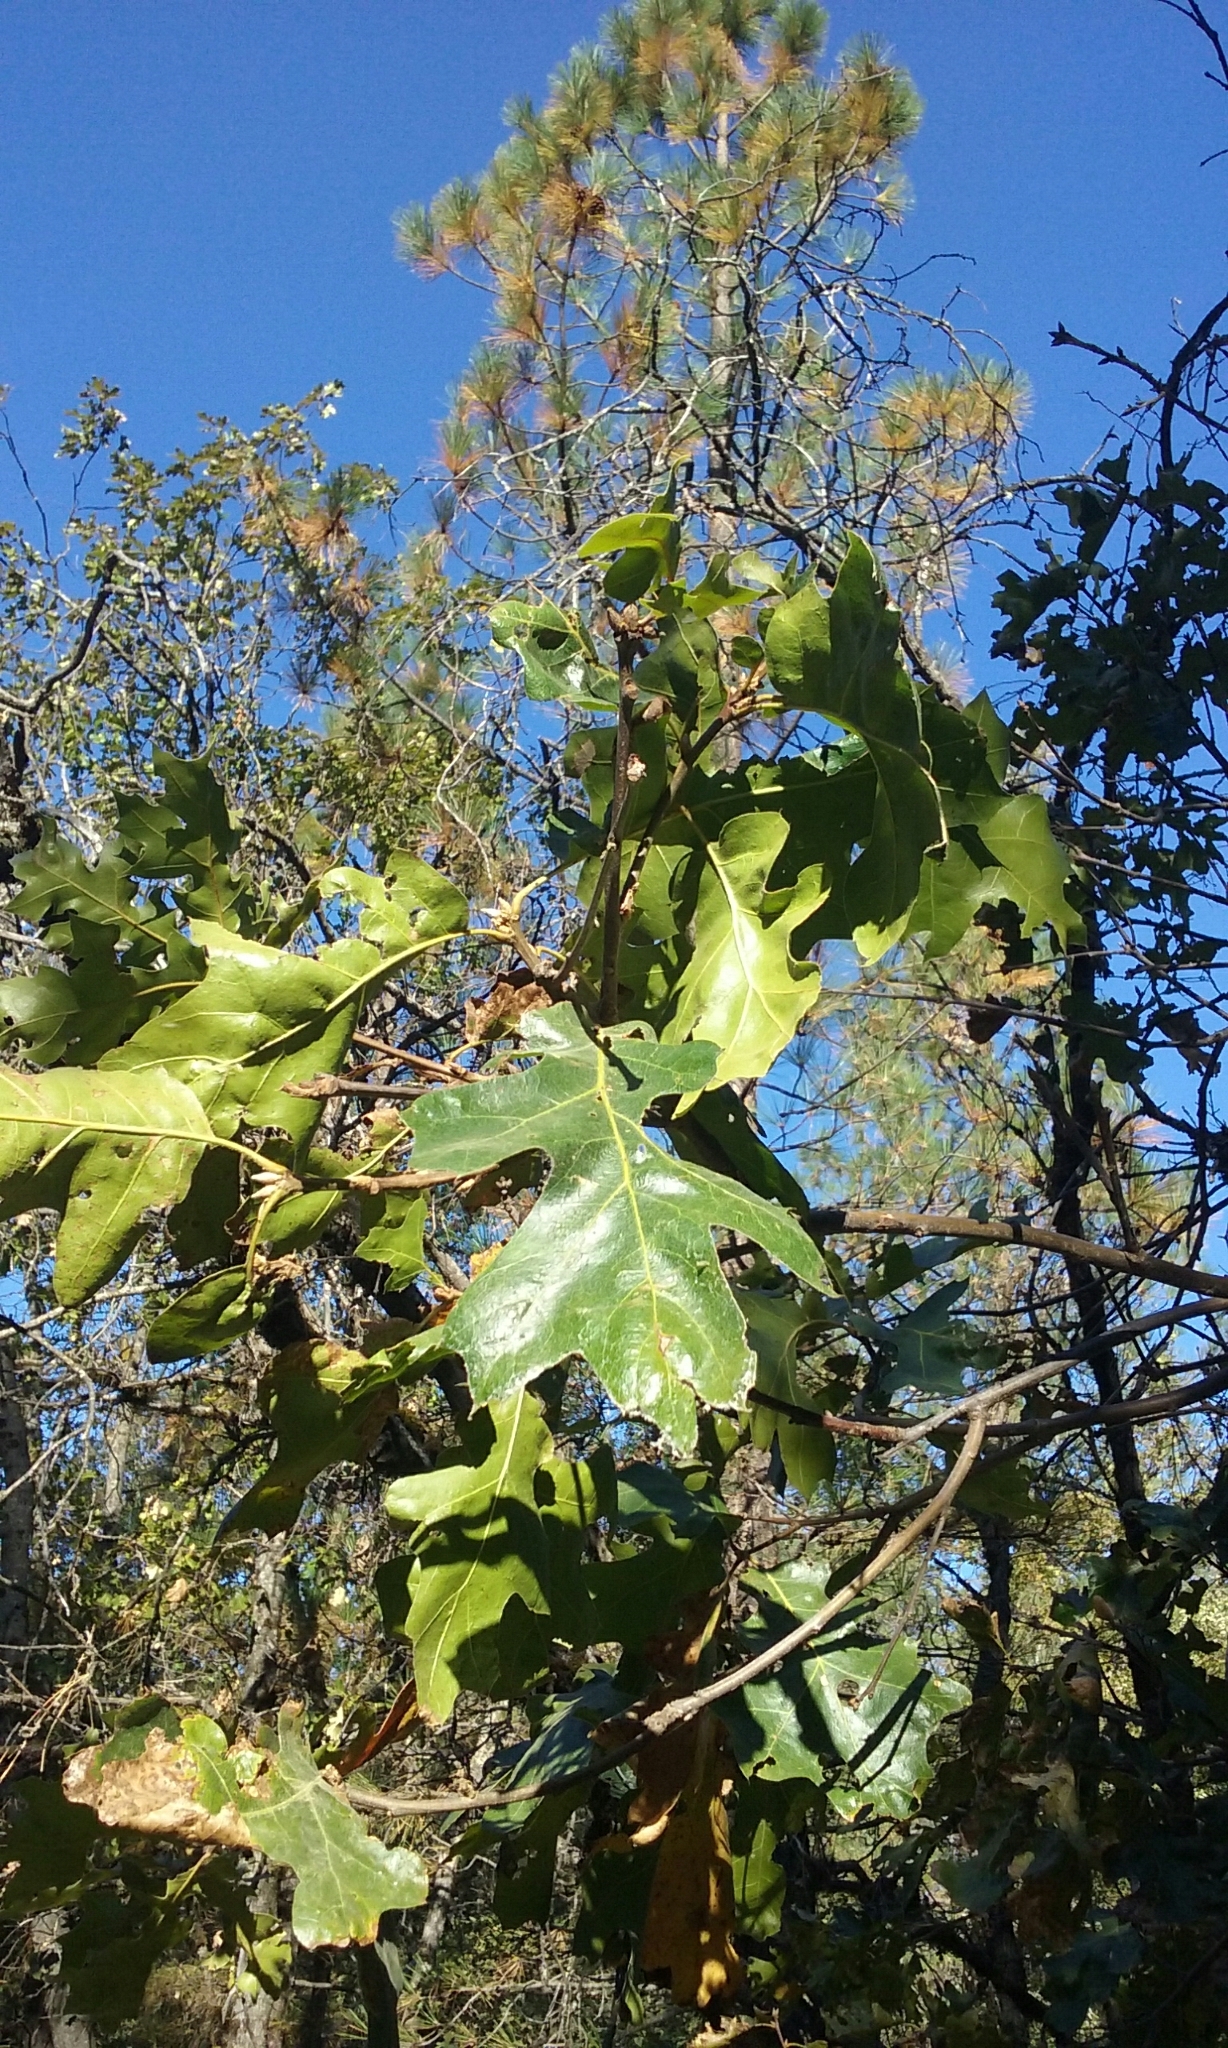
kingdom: Plantae
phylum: Tracheophyta
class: Magnoliopsida
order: Fagales
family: Fagaceae
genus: Quercus
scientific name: Quercus kelloggii
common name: California black oak
